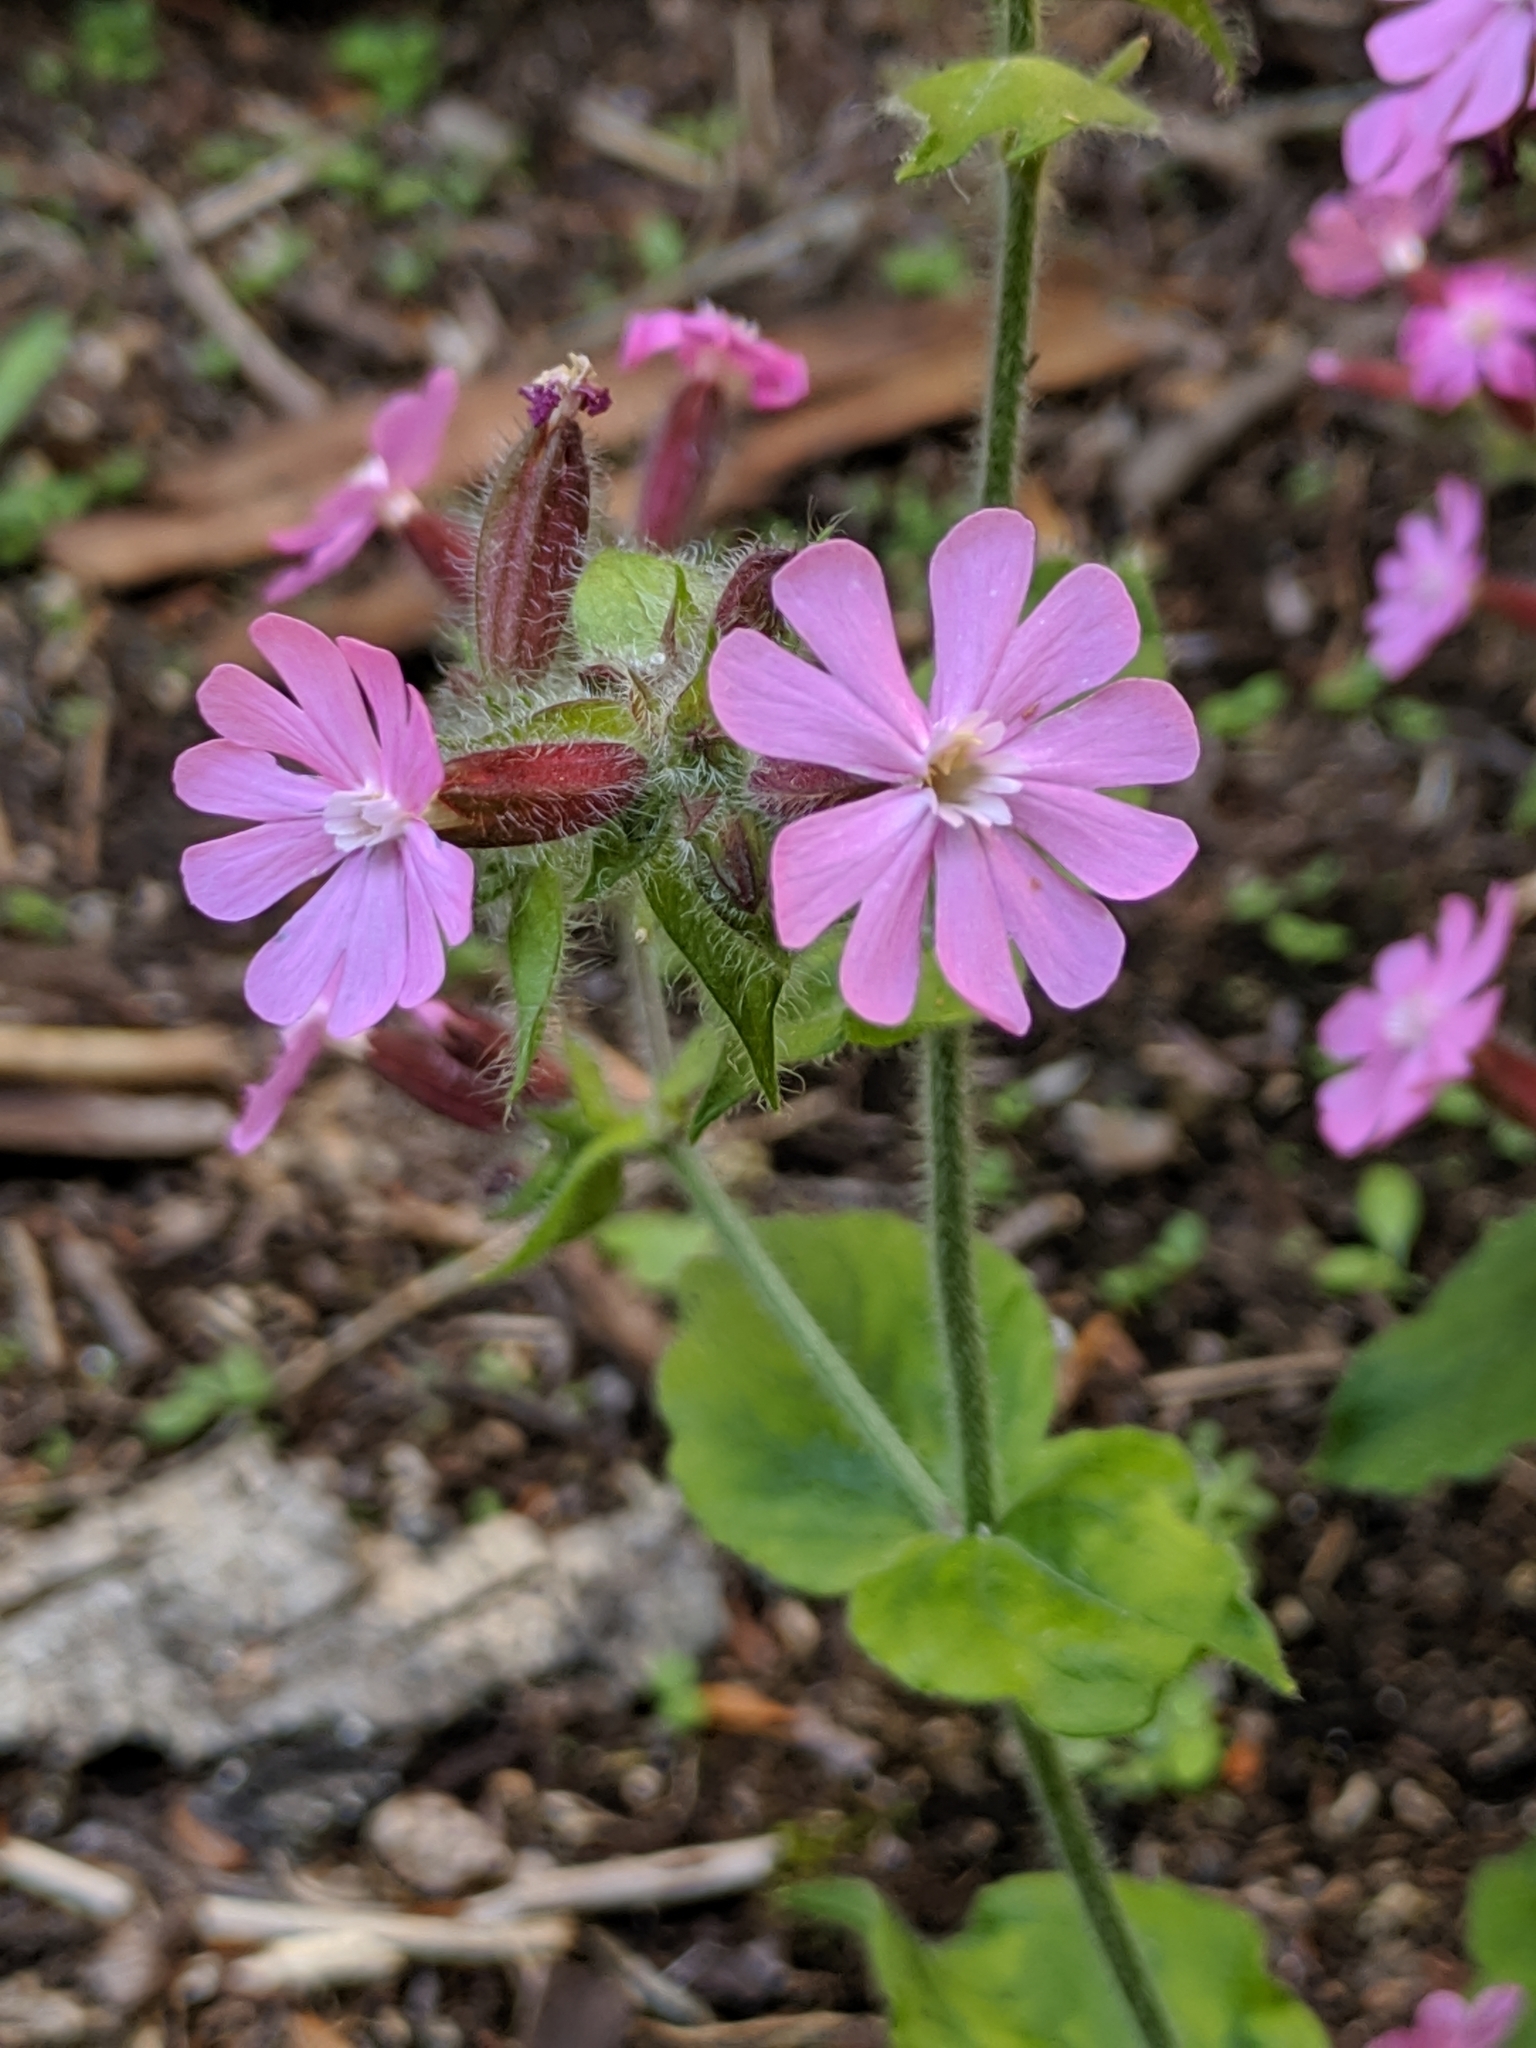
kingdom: Plantae
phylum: Tracheophyta
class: Magnoliopsida
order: Caryophyllales
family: Caryophyllaceae
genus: Silene
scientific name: Silene dioica
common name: Red campion
